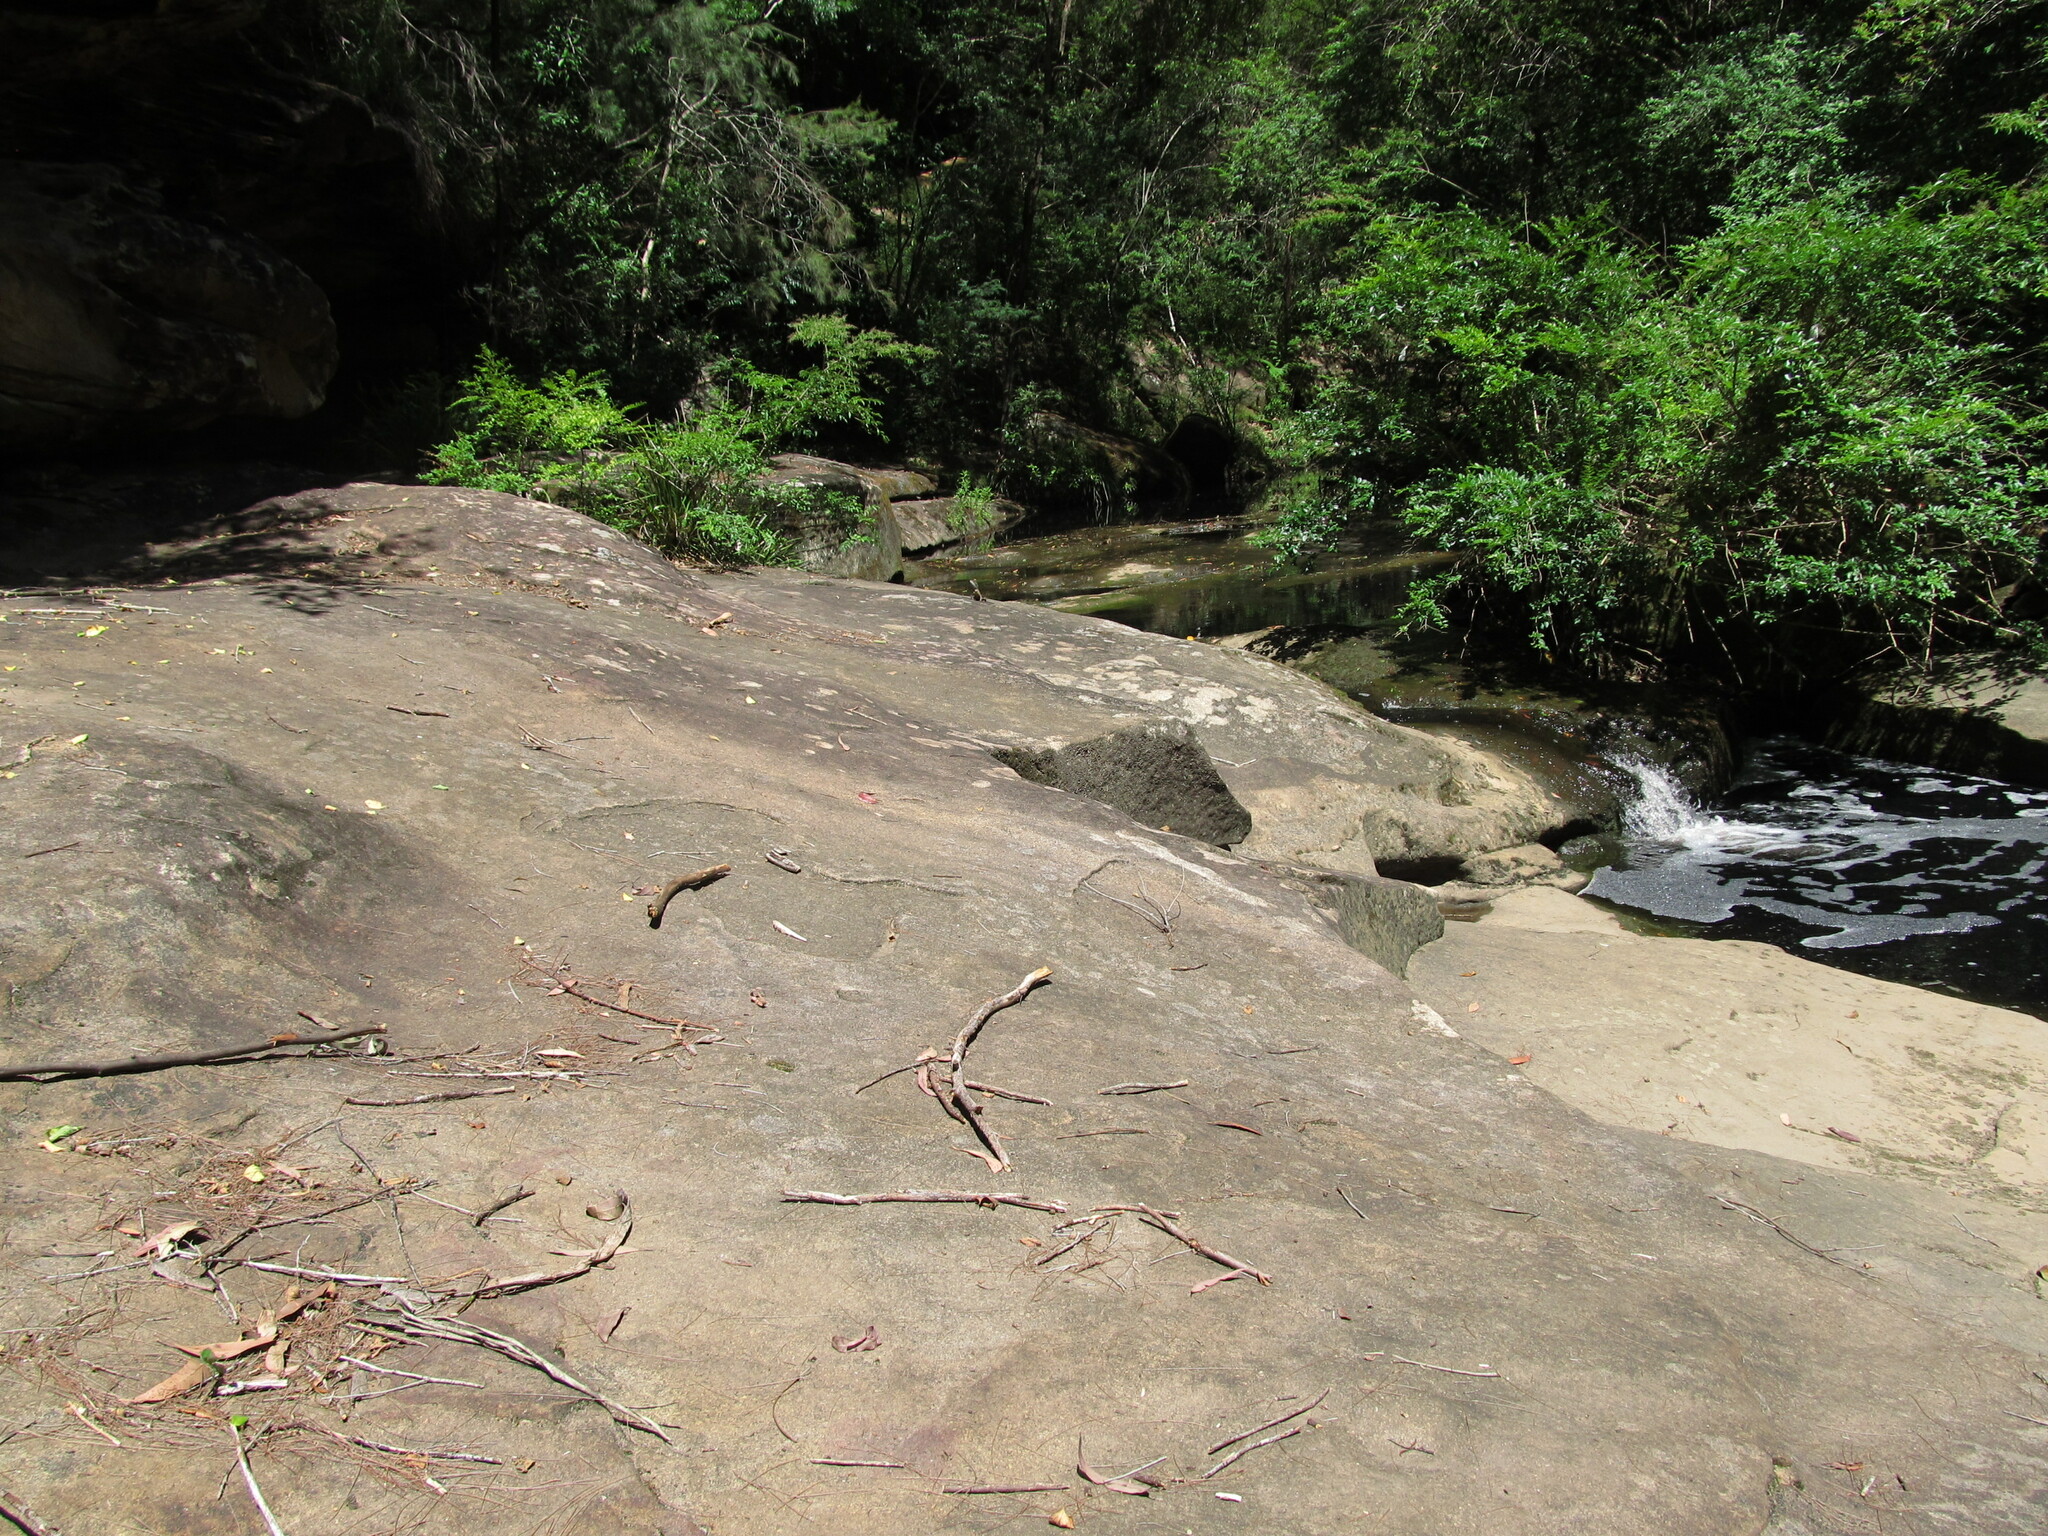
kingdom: Animalia
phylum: Chordata
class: Squamata
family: Agamidae
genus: Intellagama
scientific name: Intellagama lesueurii
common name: Eastern water dragon
